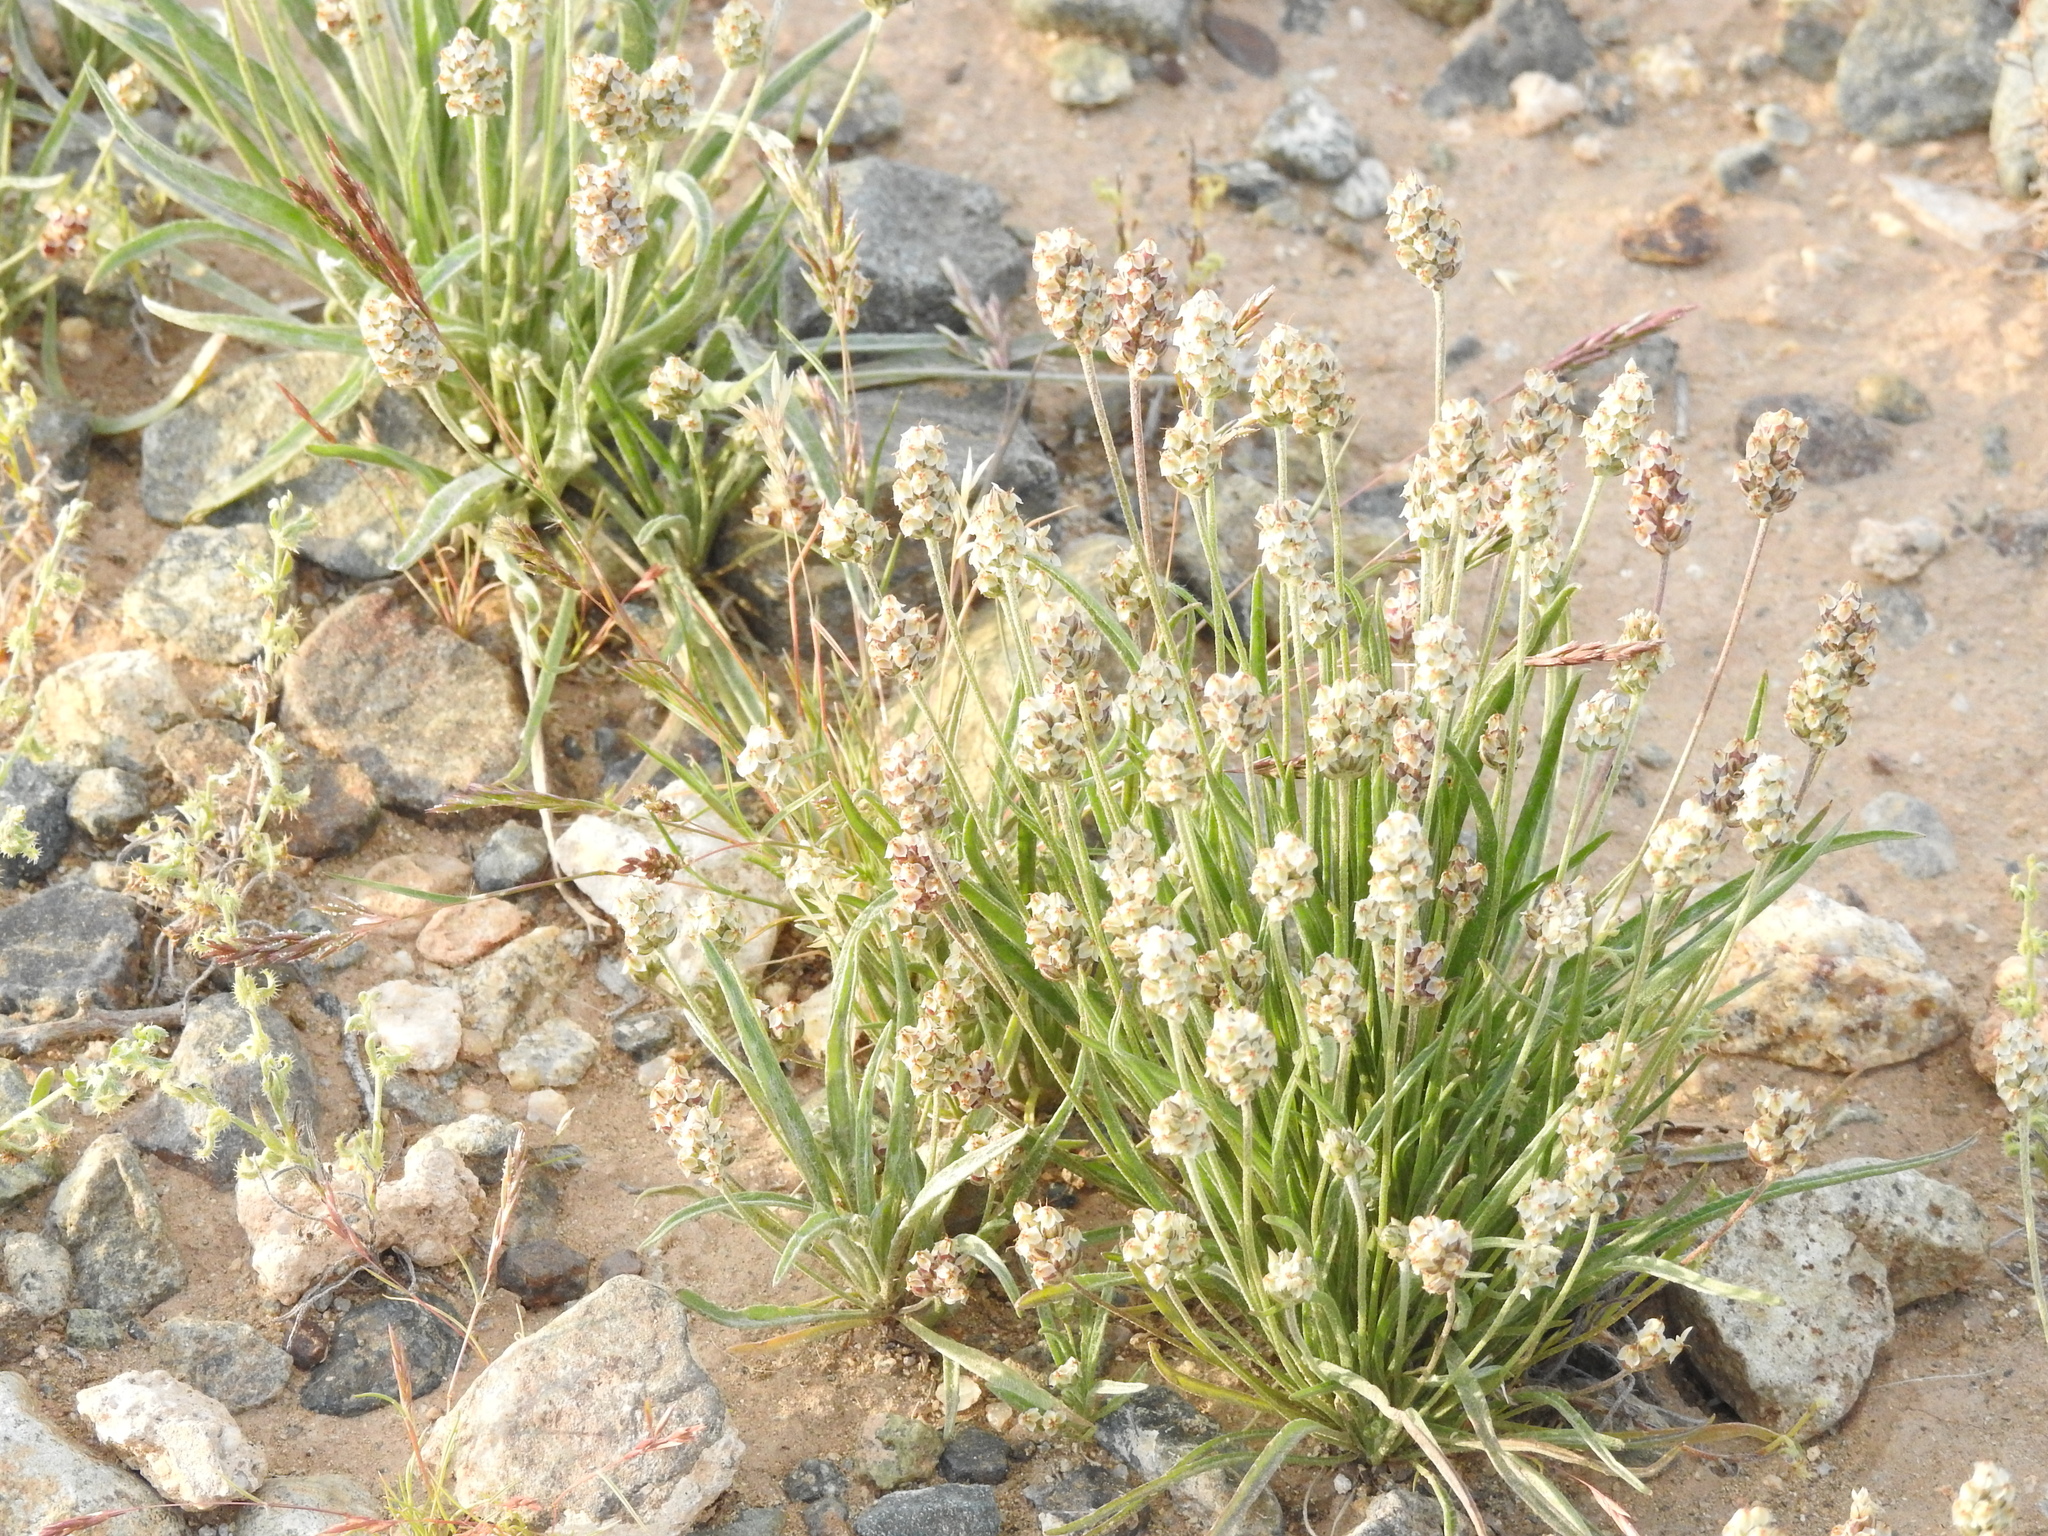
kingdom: Plantae
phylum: Tracheophyta
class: Magnoliopsida
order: Lamiales
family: Plantaginaceae
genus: Plantago
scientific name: Plantago ovata
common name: Blond plantain
